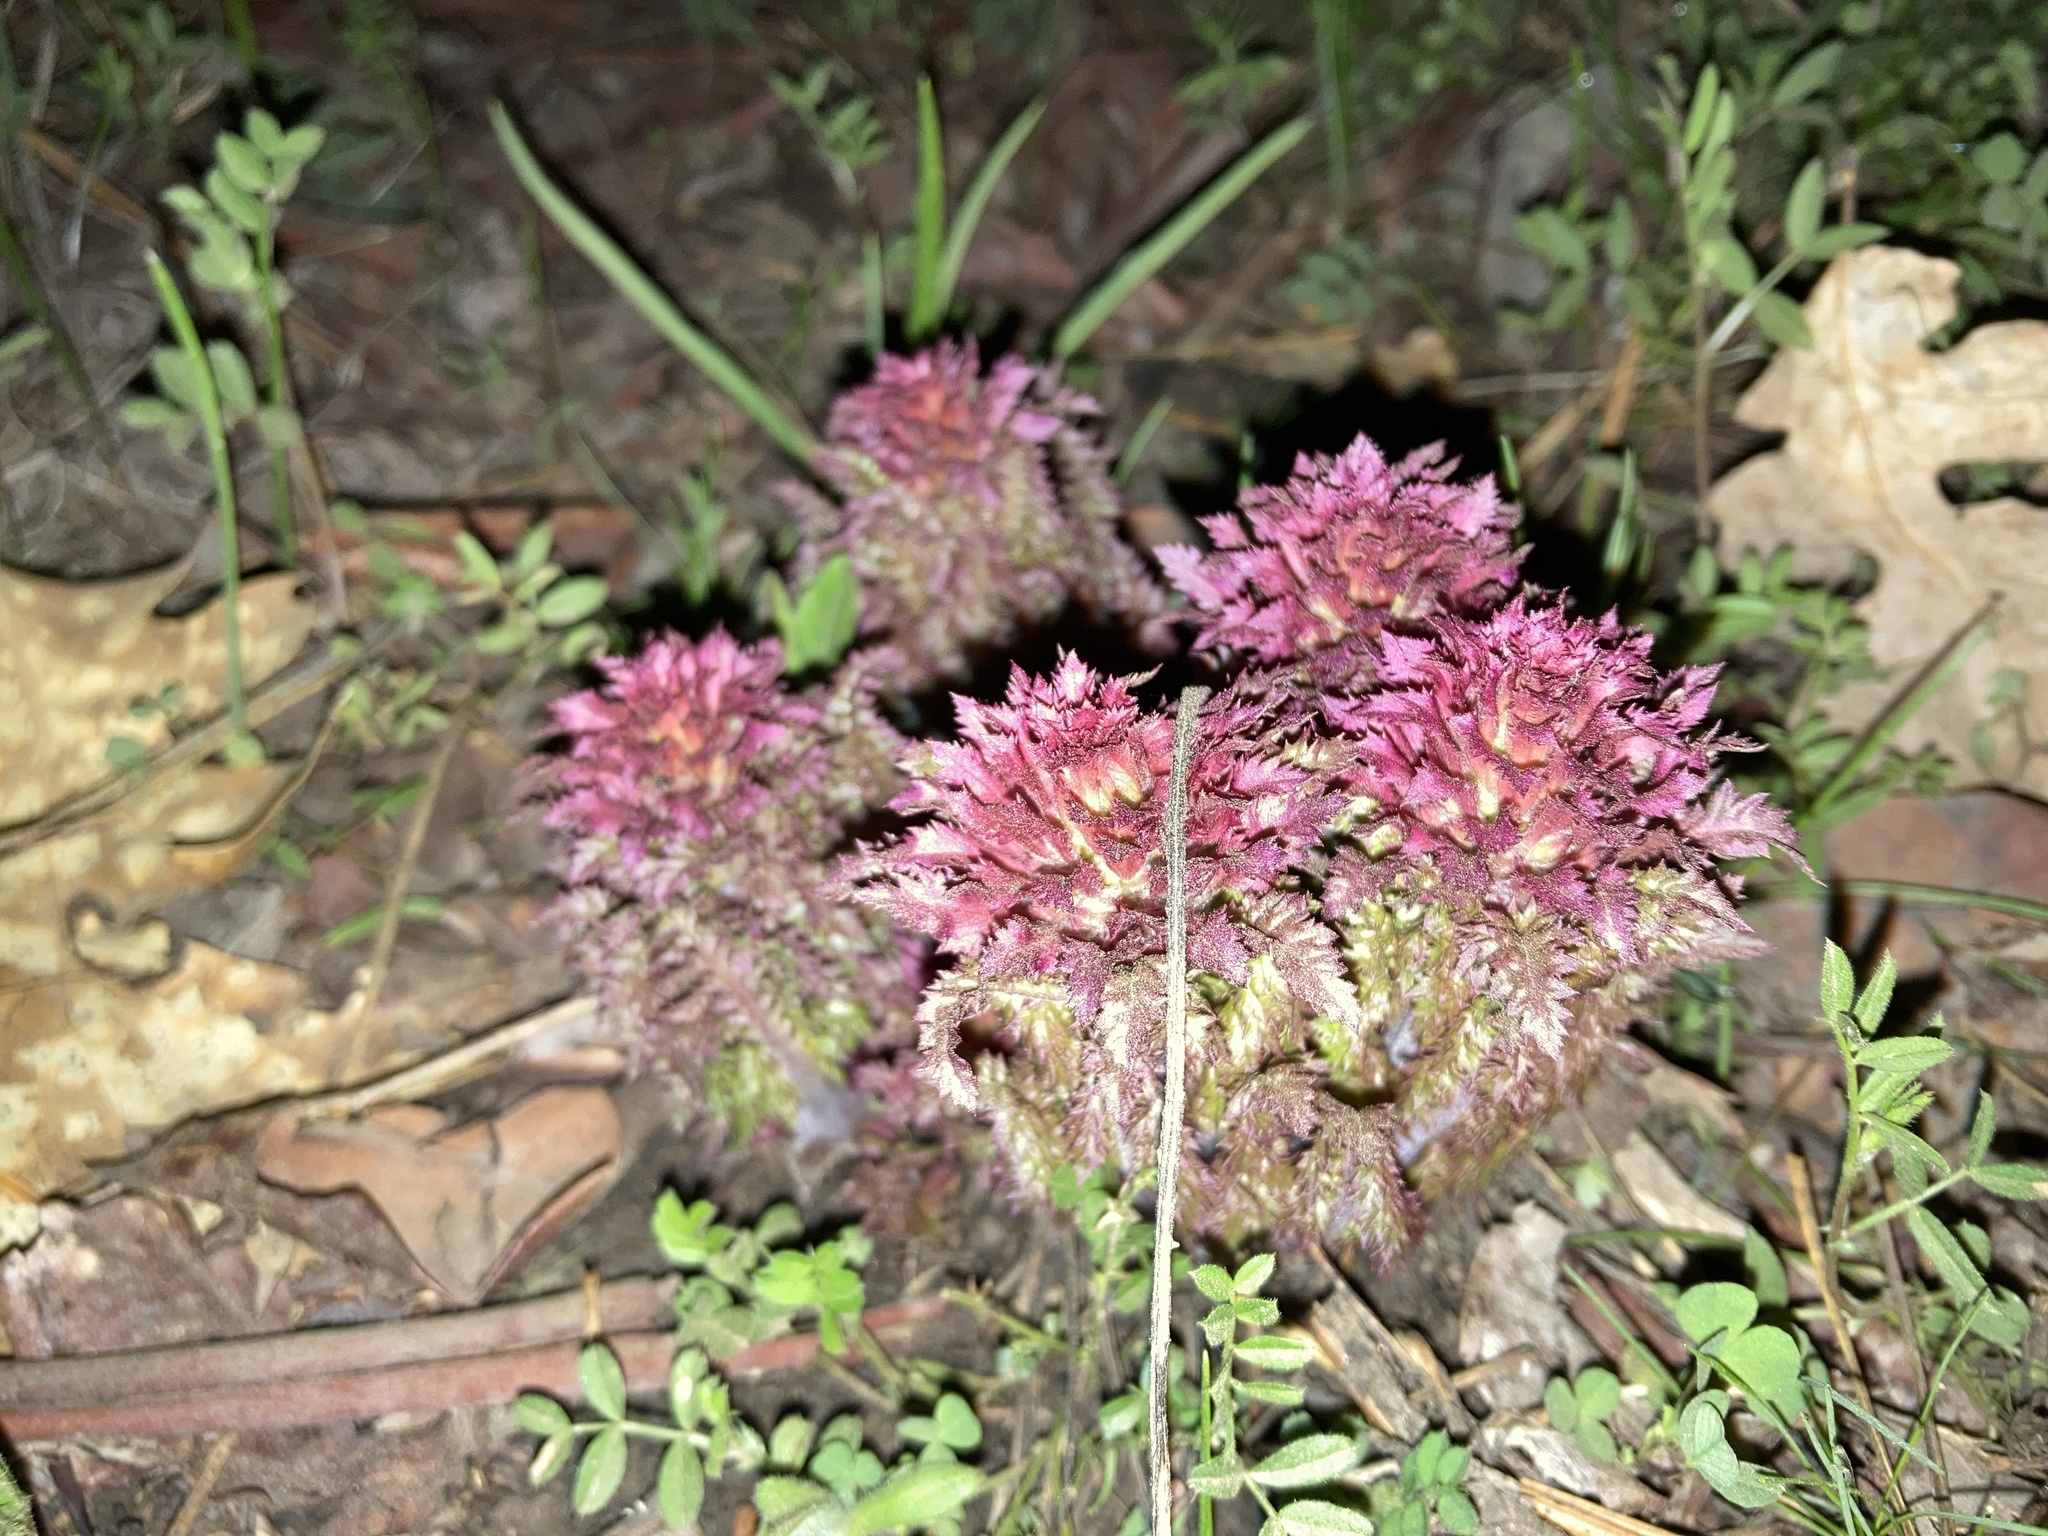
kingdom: Plantae
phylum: Tracheophyta
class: Magnoliopsida
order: Lamiales
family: Orobanchaceae
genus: Pedicularis
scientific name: Pedicularis densiflora
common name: Indian warrior
